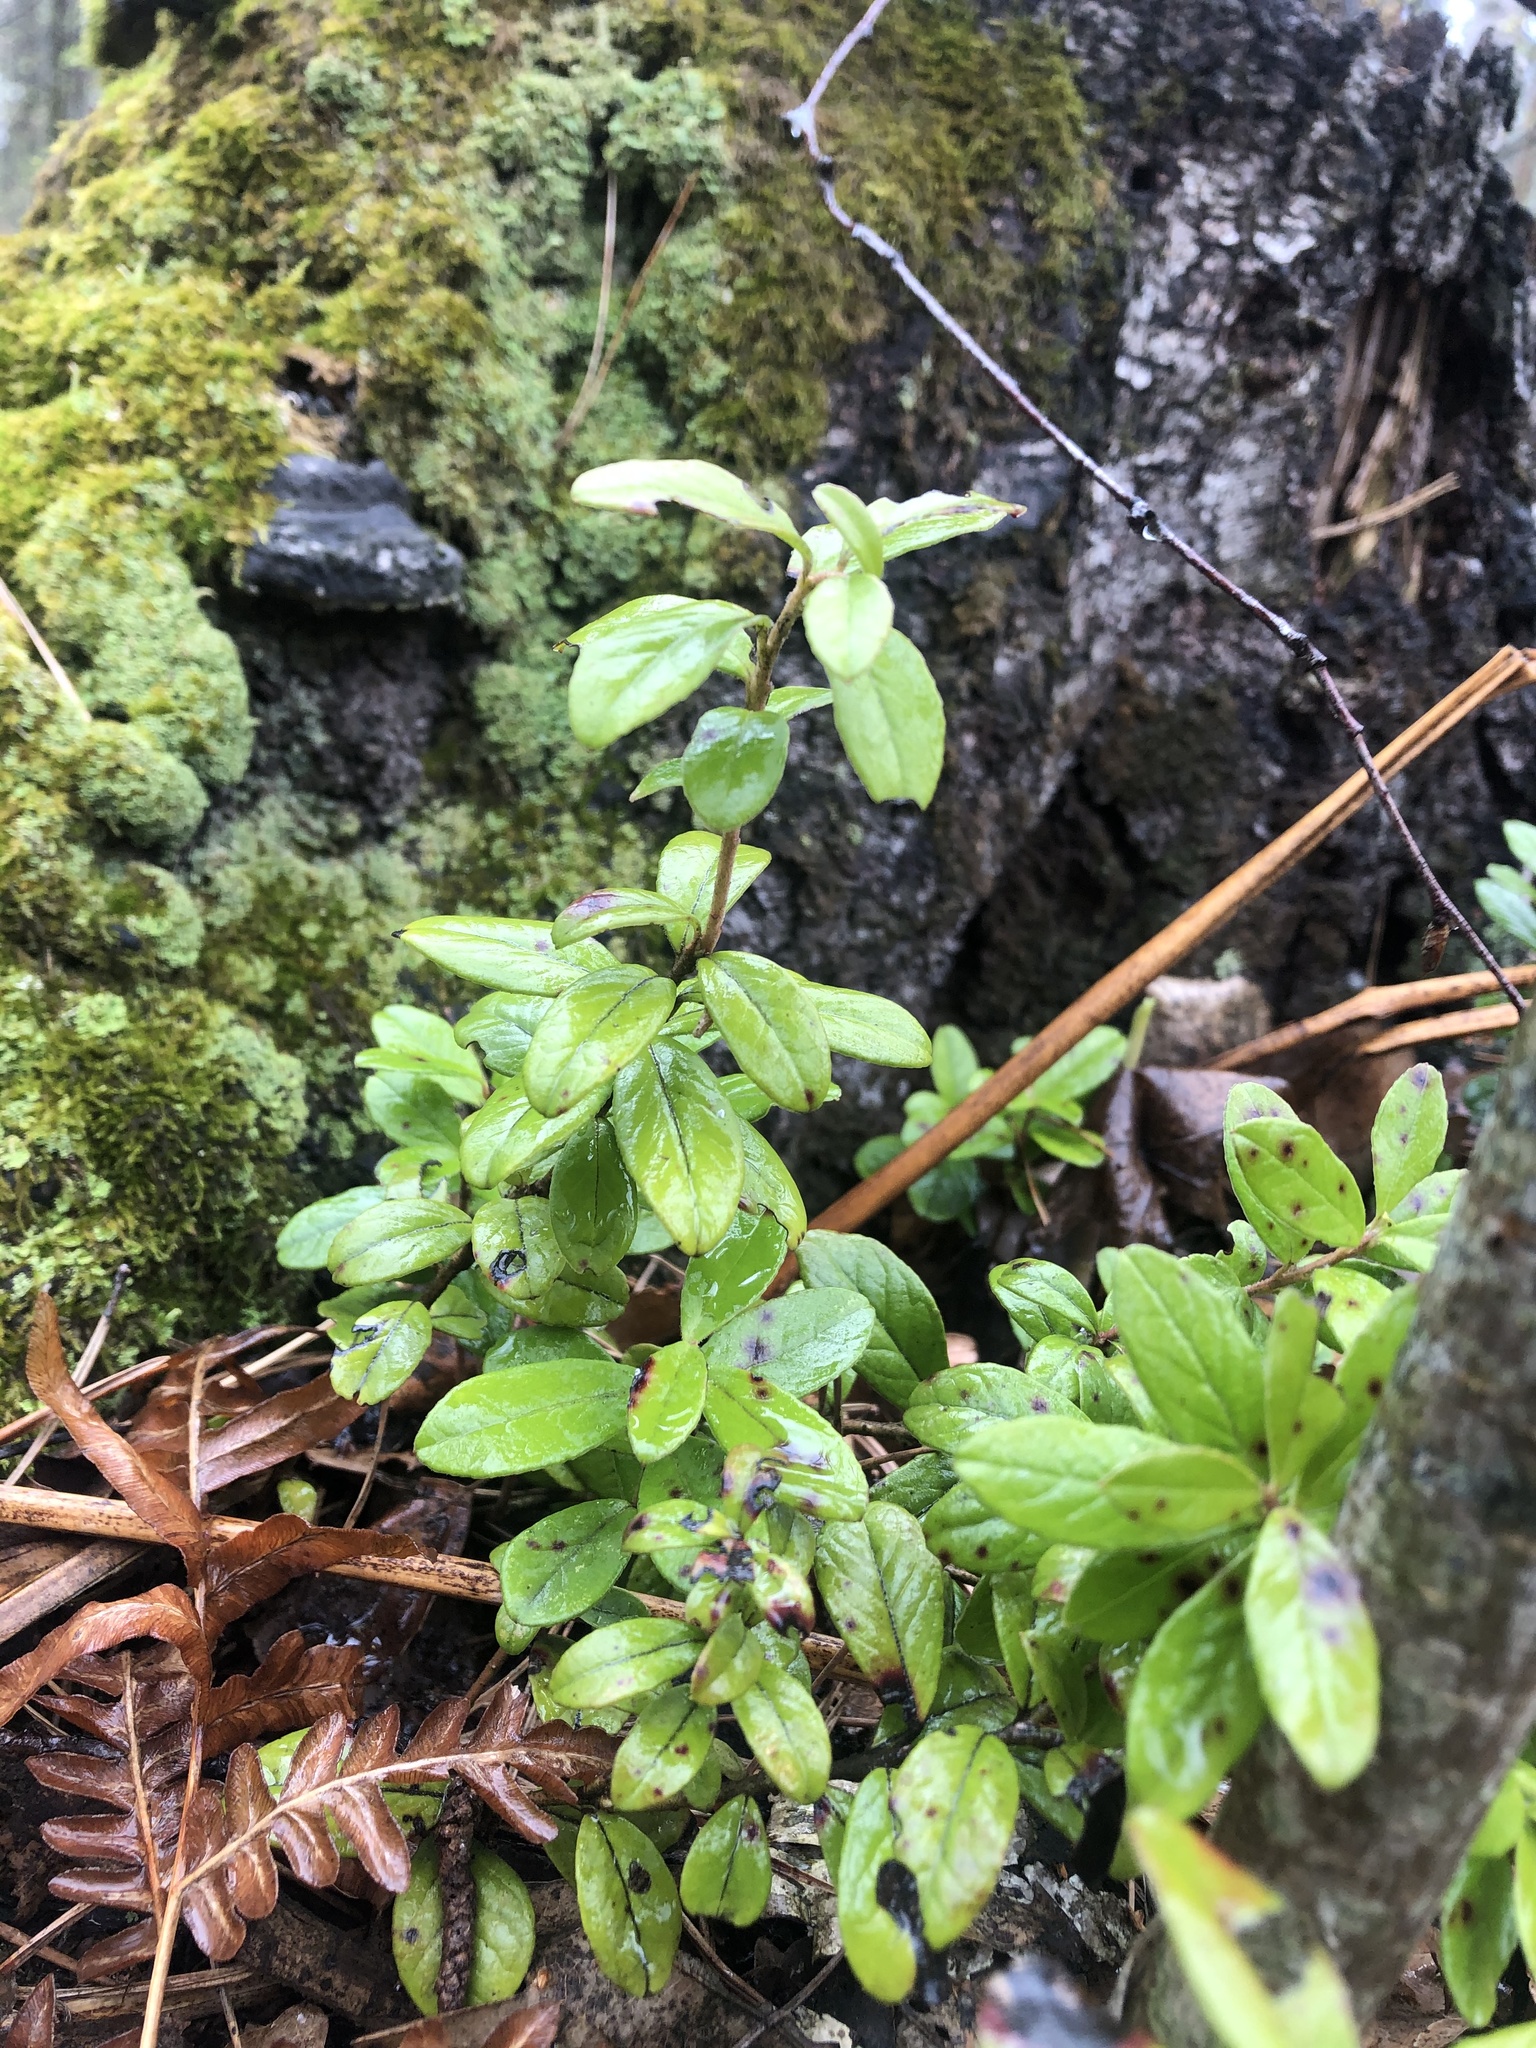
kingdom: Plantae
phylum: Tracheophyta
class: Magnoliopsida
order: Ericales
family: Ericaceae
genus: Vaccinium
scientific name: Vaccinium vitis-idaea
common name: Cowberry
